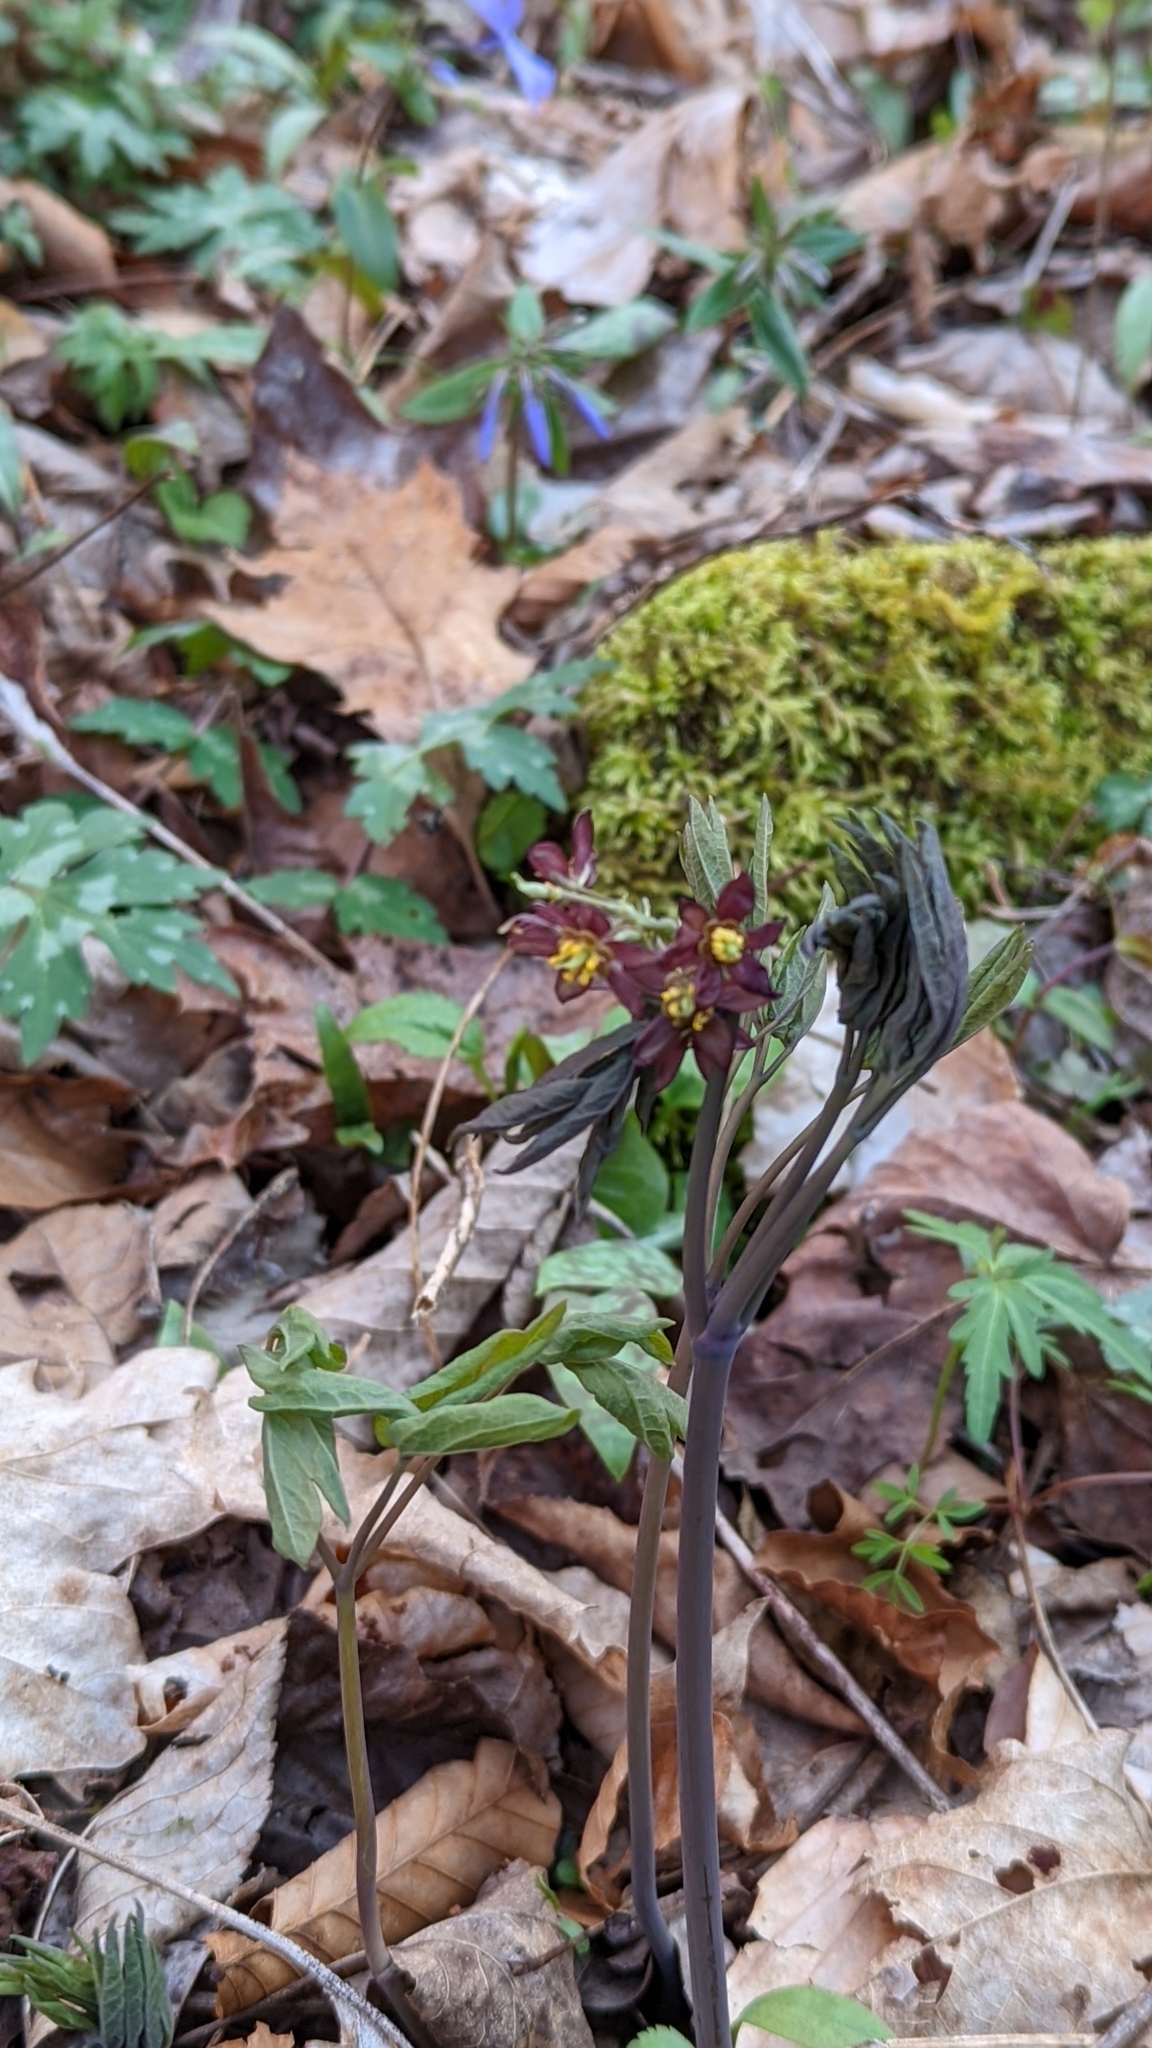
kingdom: Plantae
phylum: Tracheophyta
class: Magnoliopsida
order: Ranunculales
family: Berberidaceae
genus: Caulophyllum
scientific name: Caulophyllum giganteum
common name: Blue cohosh
